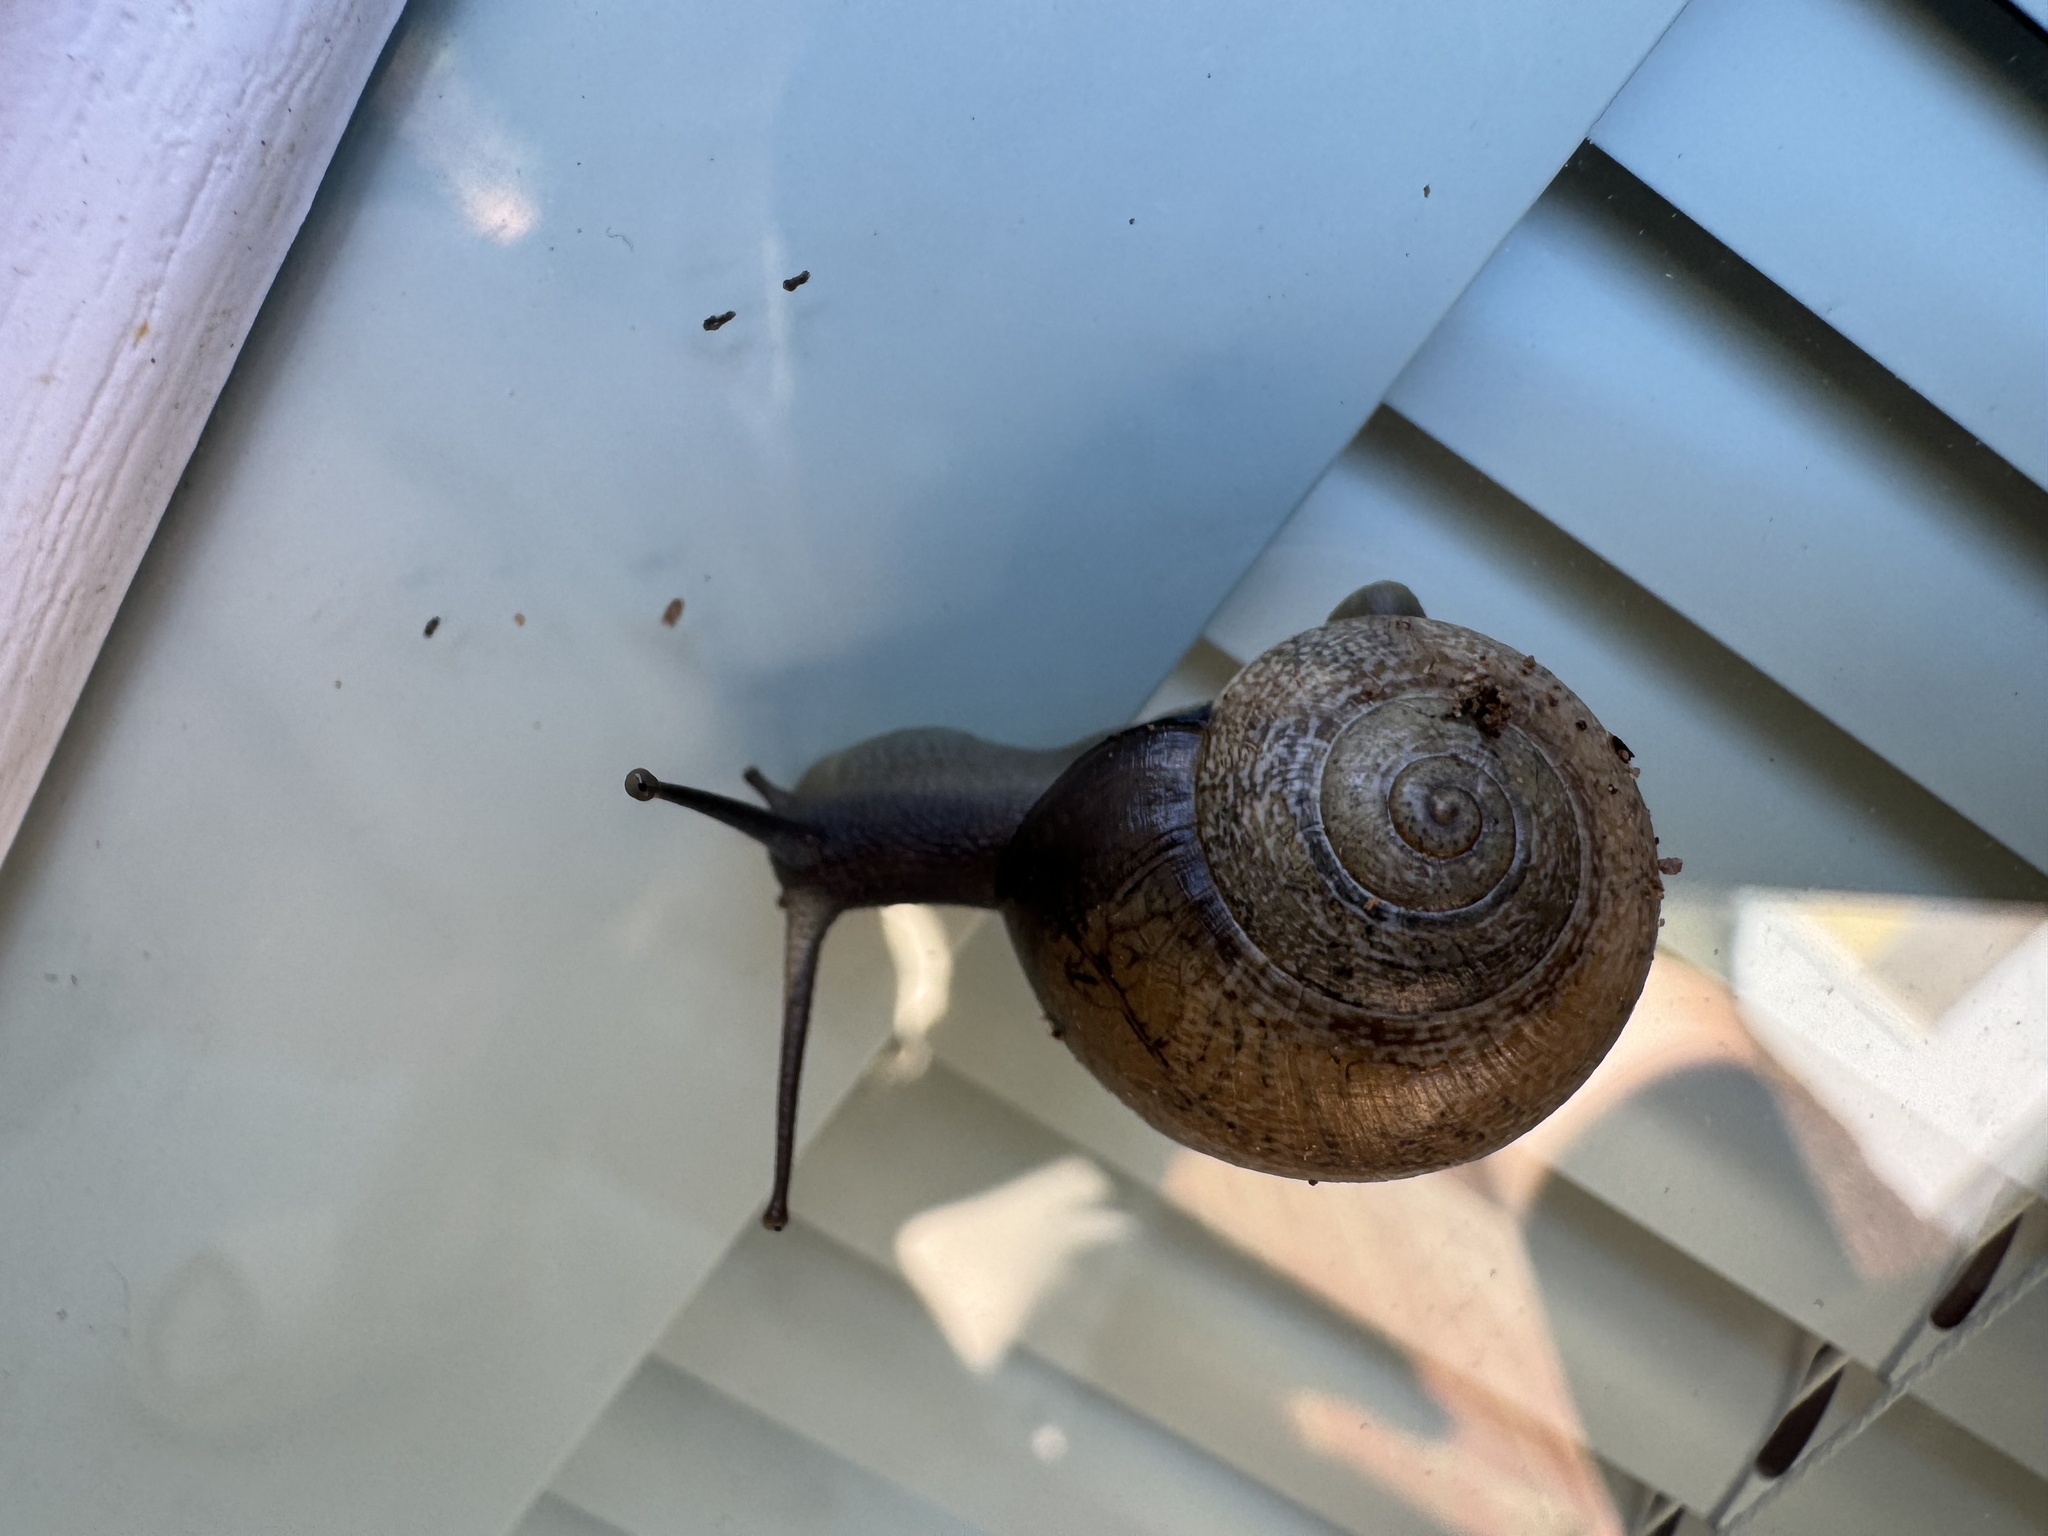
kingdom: Animalia
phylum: Mollusca
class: Gastropoda
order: Stylommatophora
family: Helicidae
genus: Otala
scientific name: Otala lactea
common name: Milk snail
